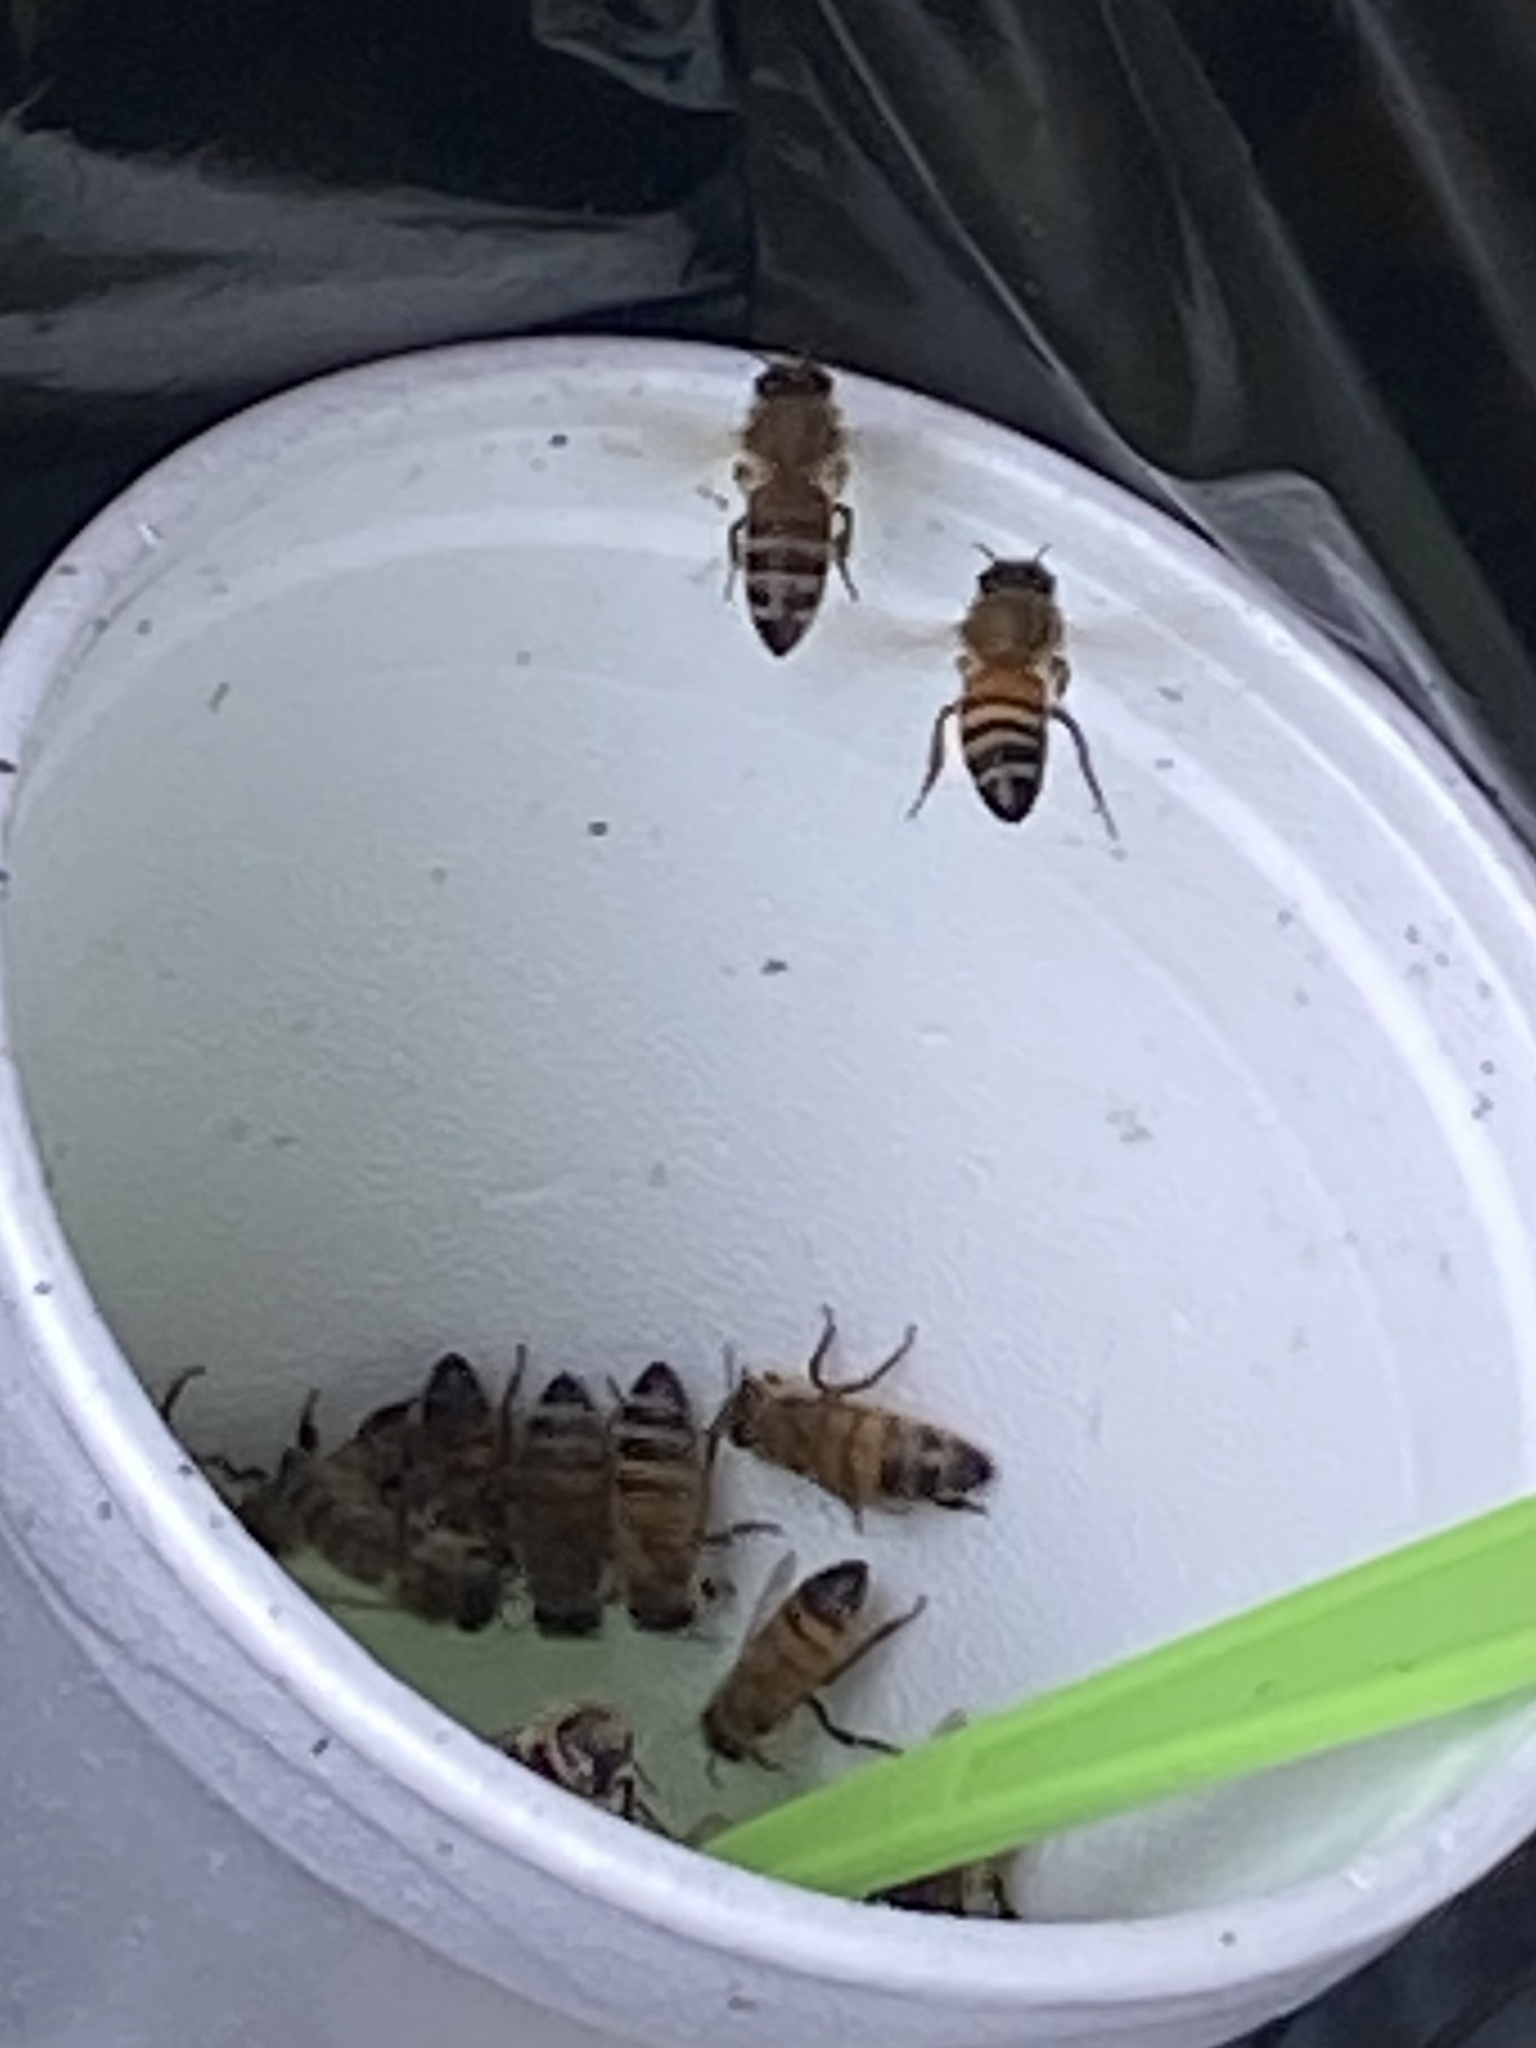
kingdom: Animalia
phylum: Arthropoda
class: Insecta
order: Hymenoptera
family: Apidae
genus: Apis
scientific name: Apis mellifera
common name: Honey bee
